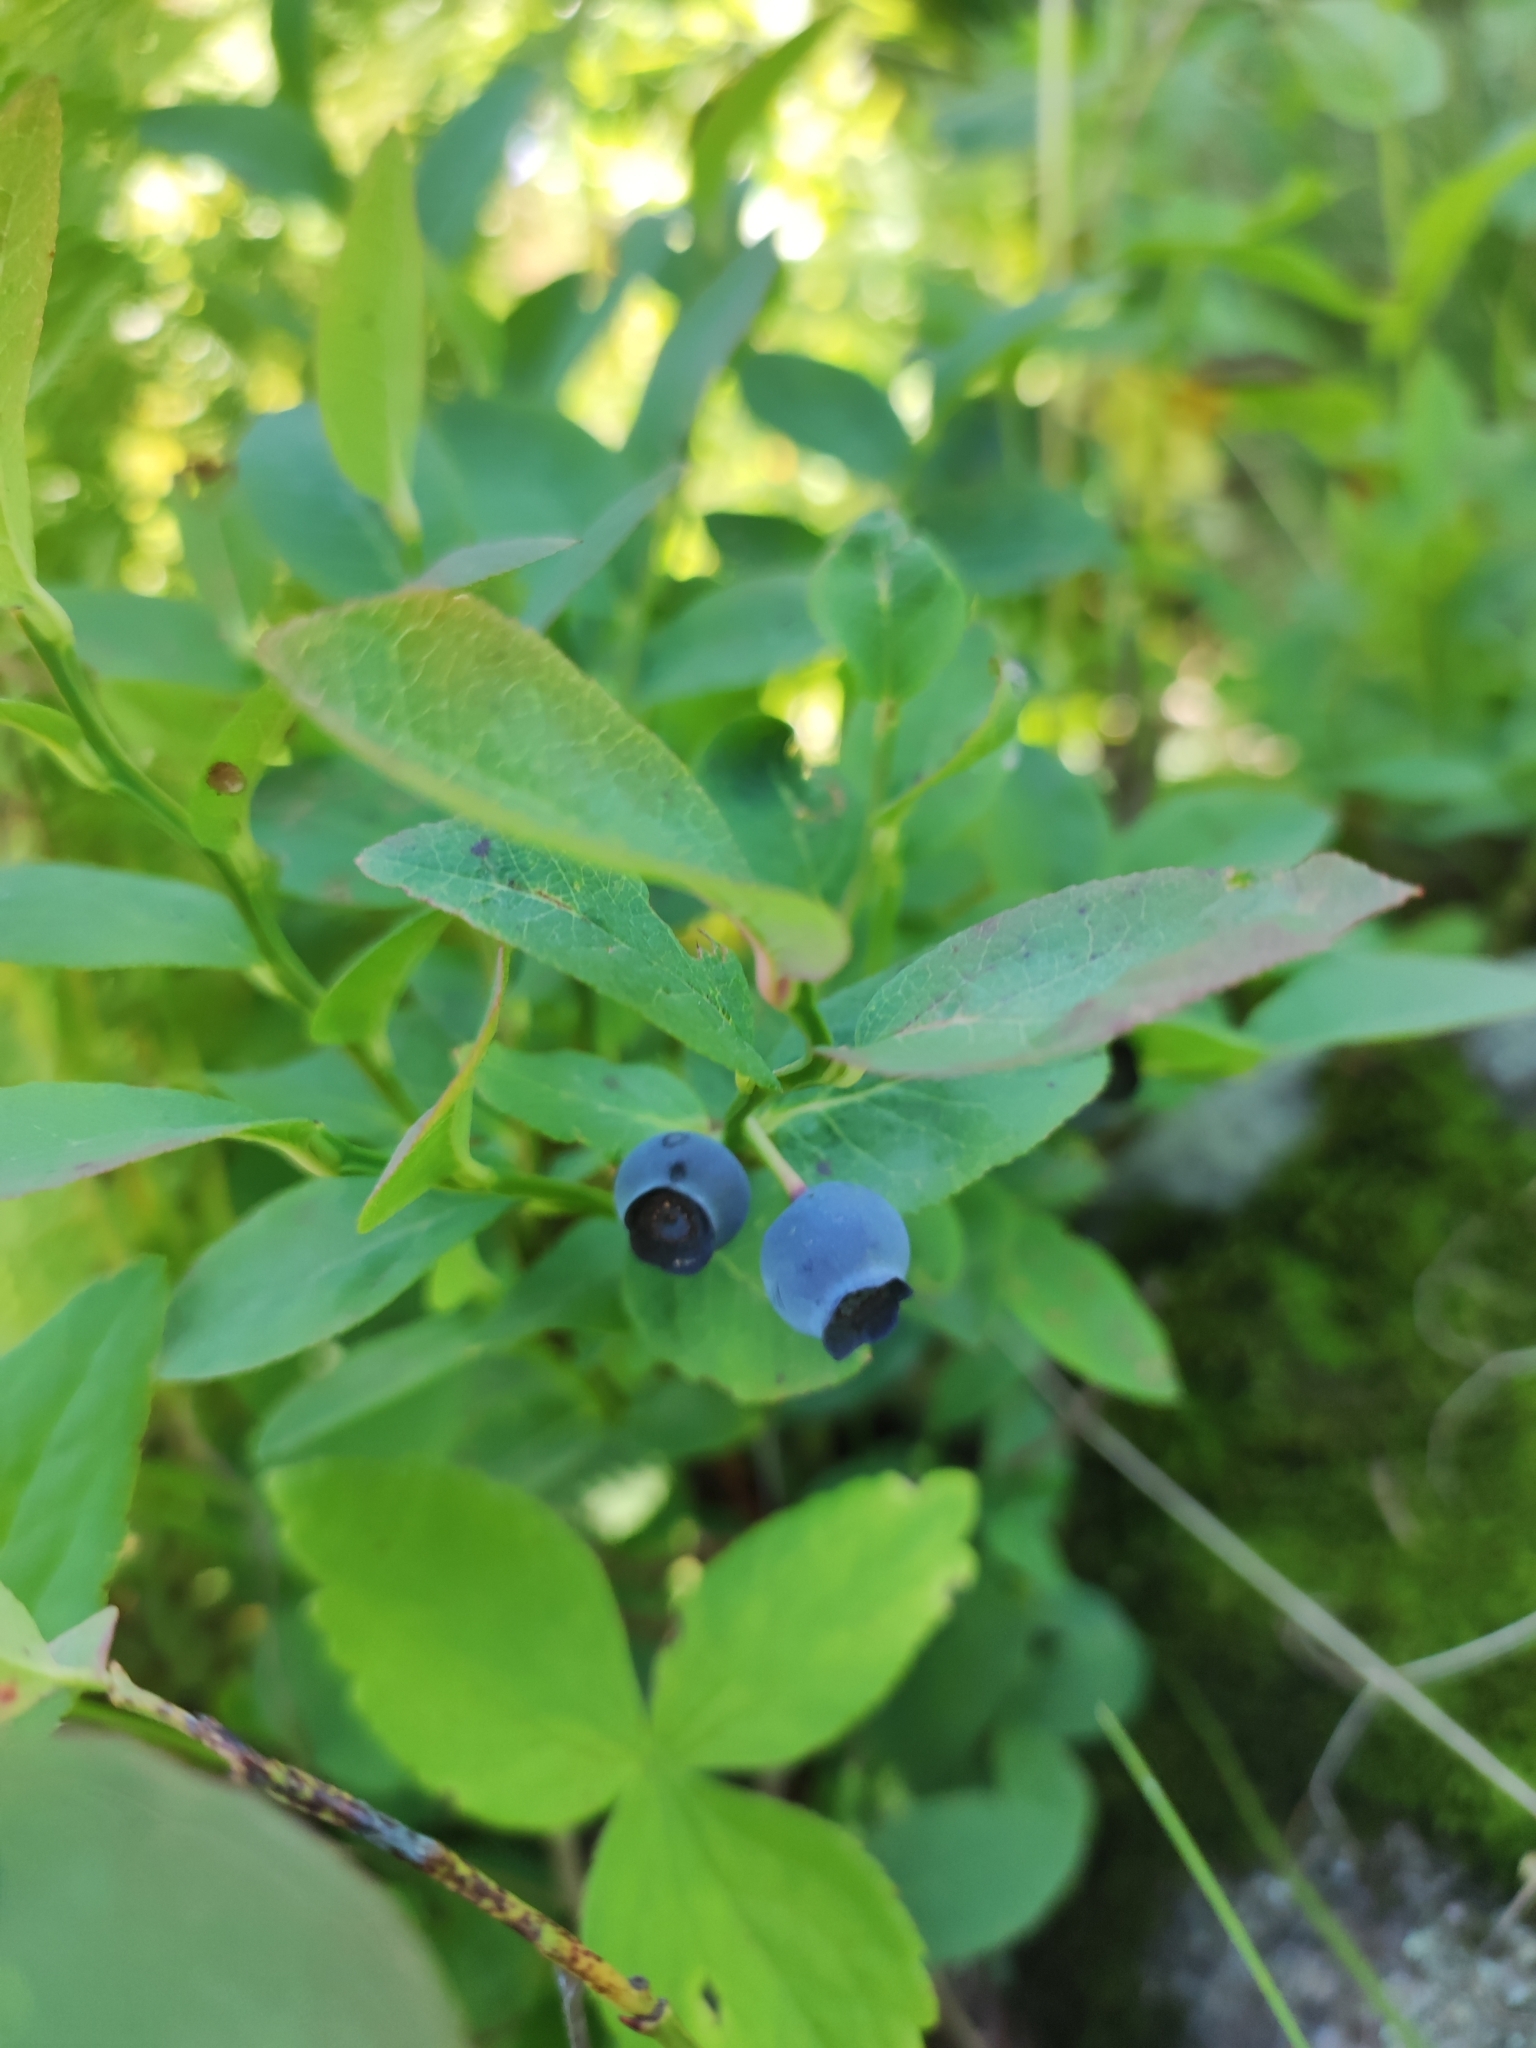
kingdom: Plantae
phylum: Tracheophyta
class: Magnoliopsida
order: Ericales
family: Ericaceae
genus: Vaccinium
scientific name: Vaccinium arctostaphylos
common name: Caucasian whortleberry
